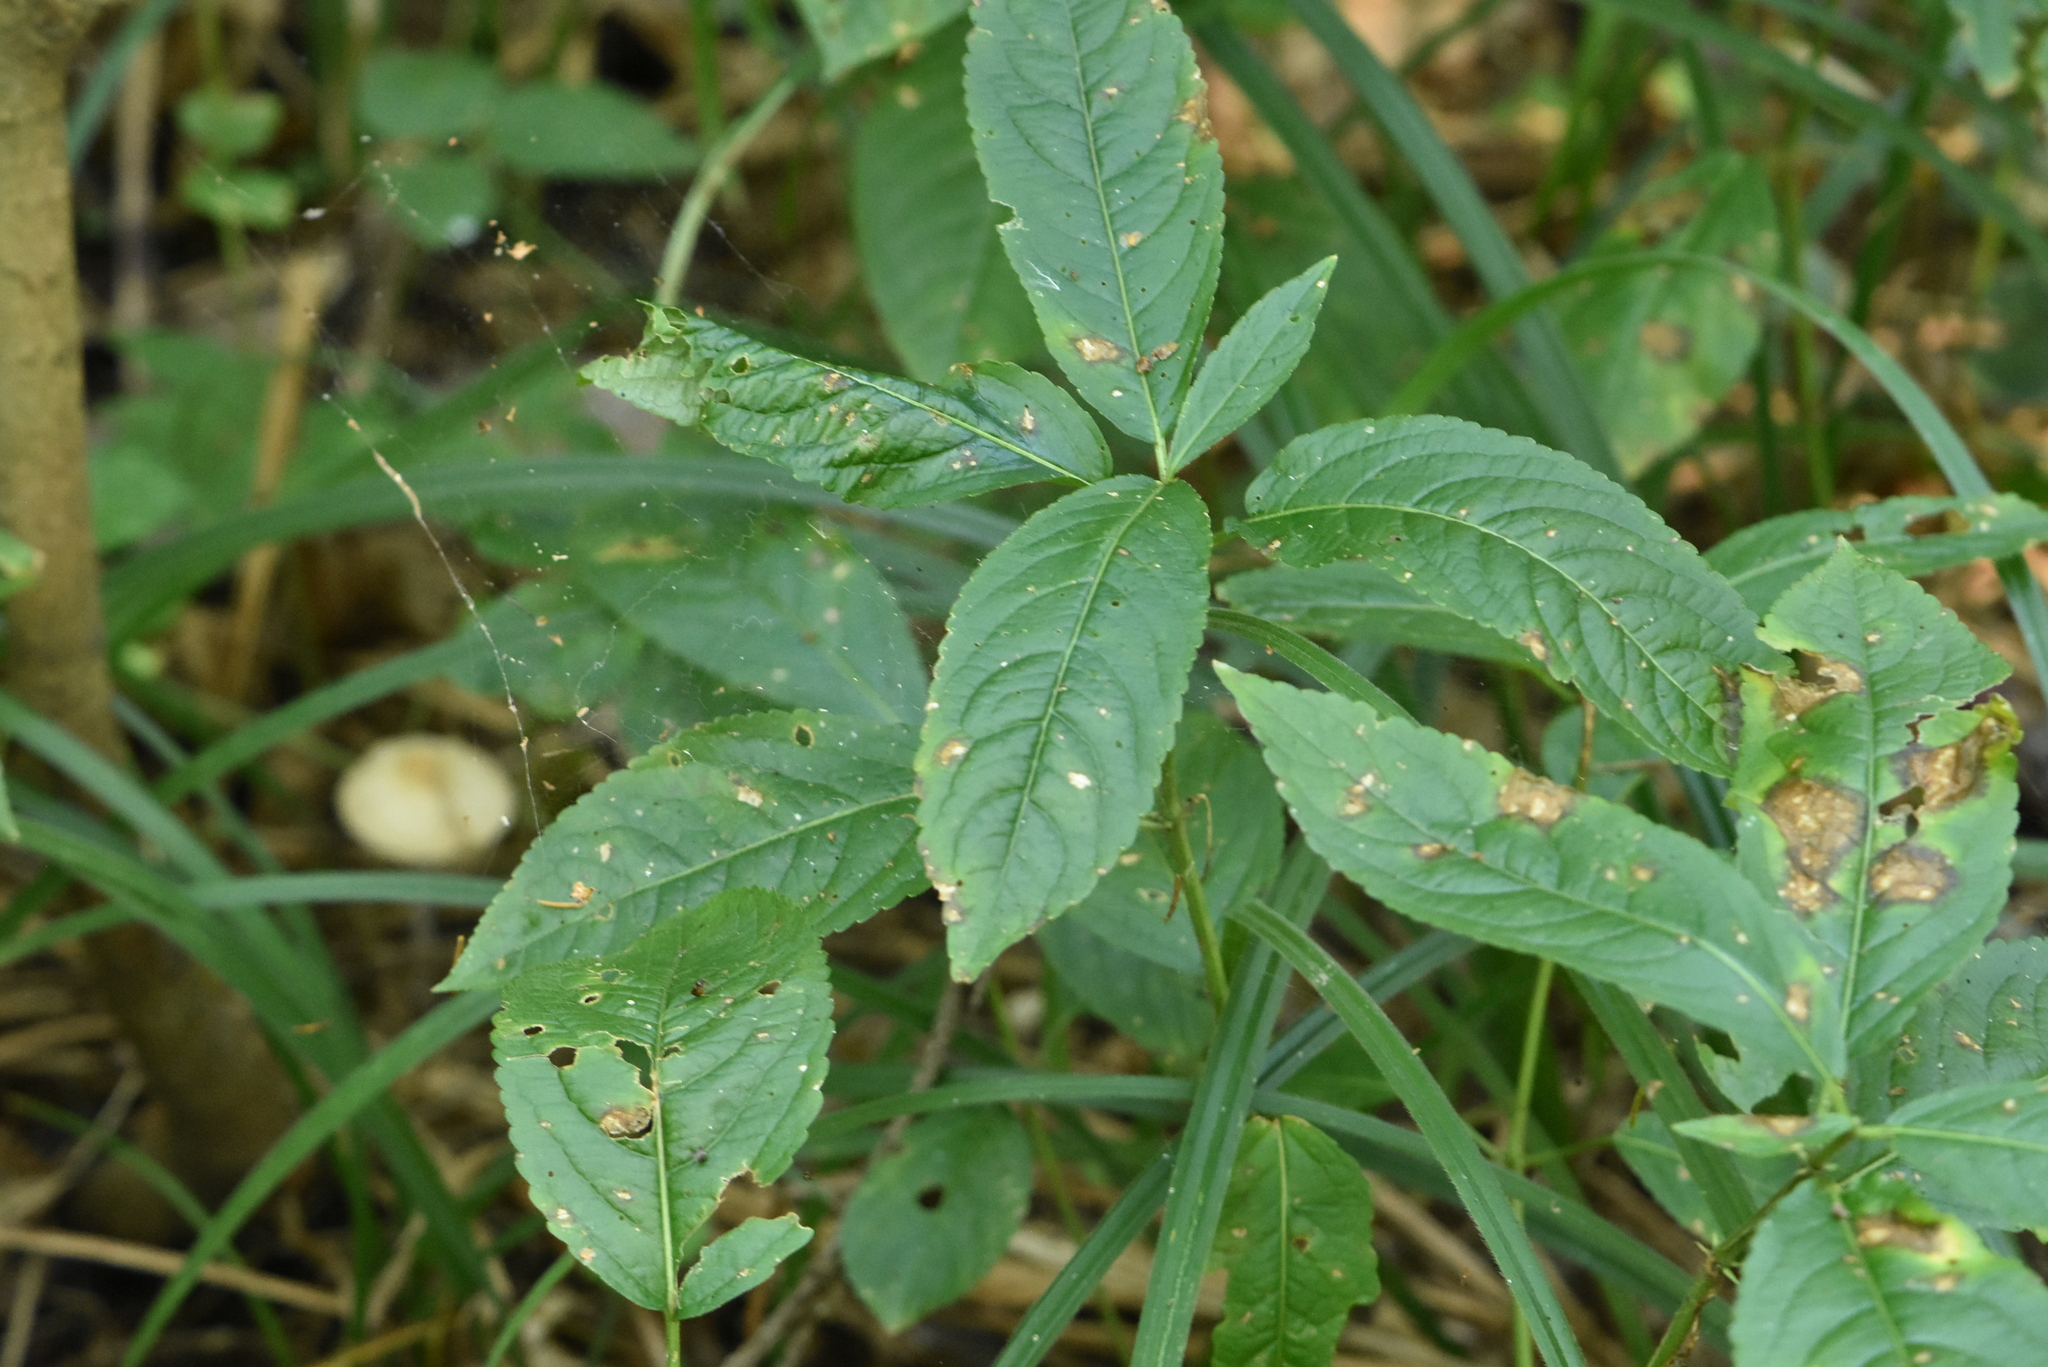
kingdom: Plantae
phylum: Tracheophyta
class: Magnoliopsida
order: Malpighiales
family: Euphorbiaceae
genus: Mercurialis
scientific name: Mercurialis perennis
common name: Dog mercury
